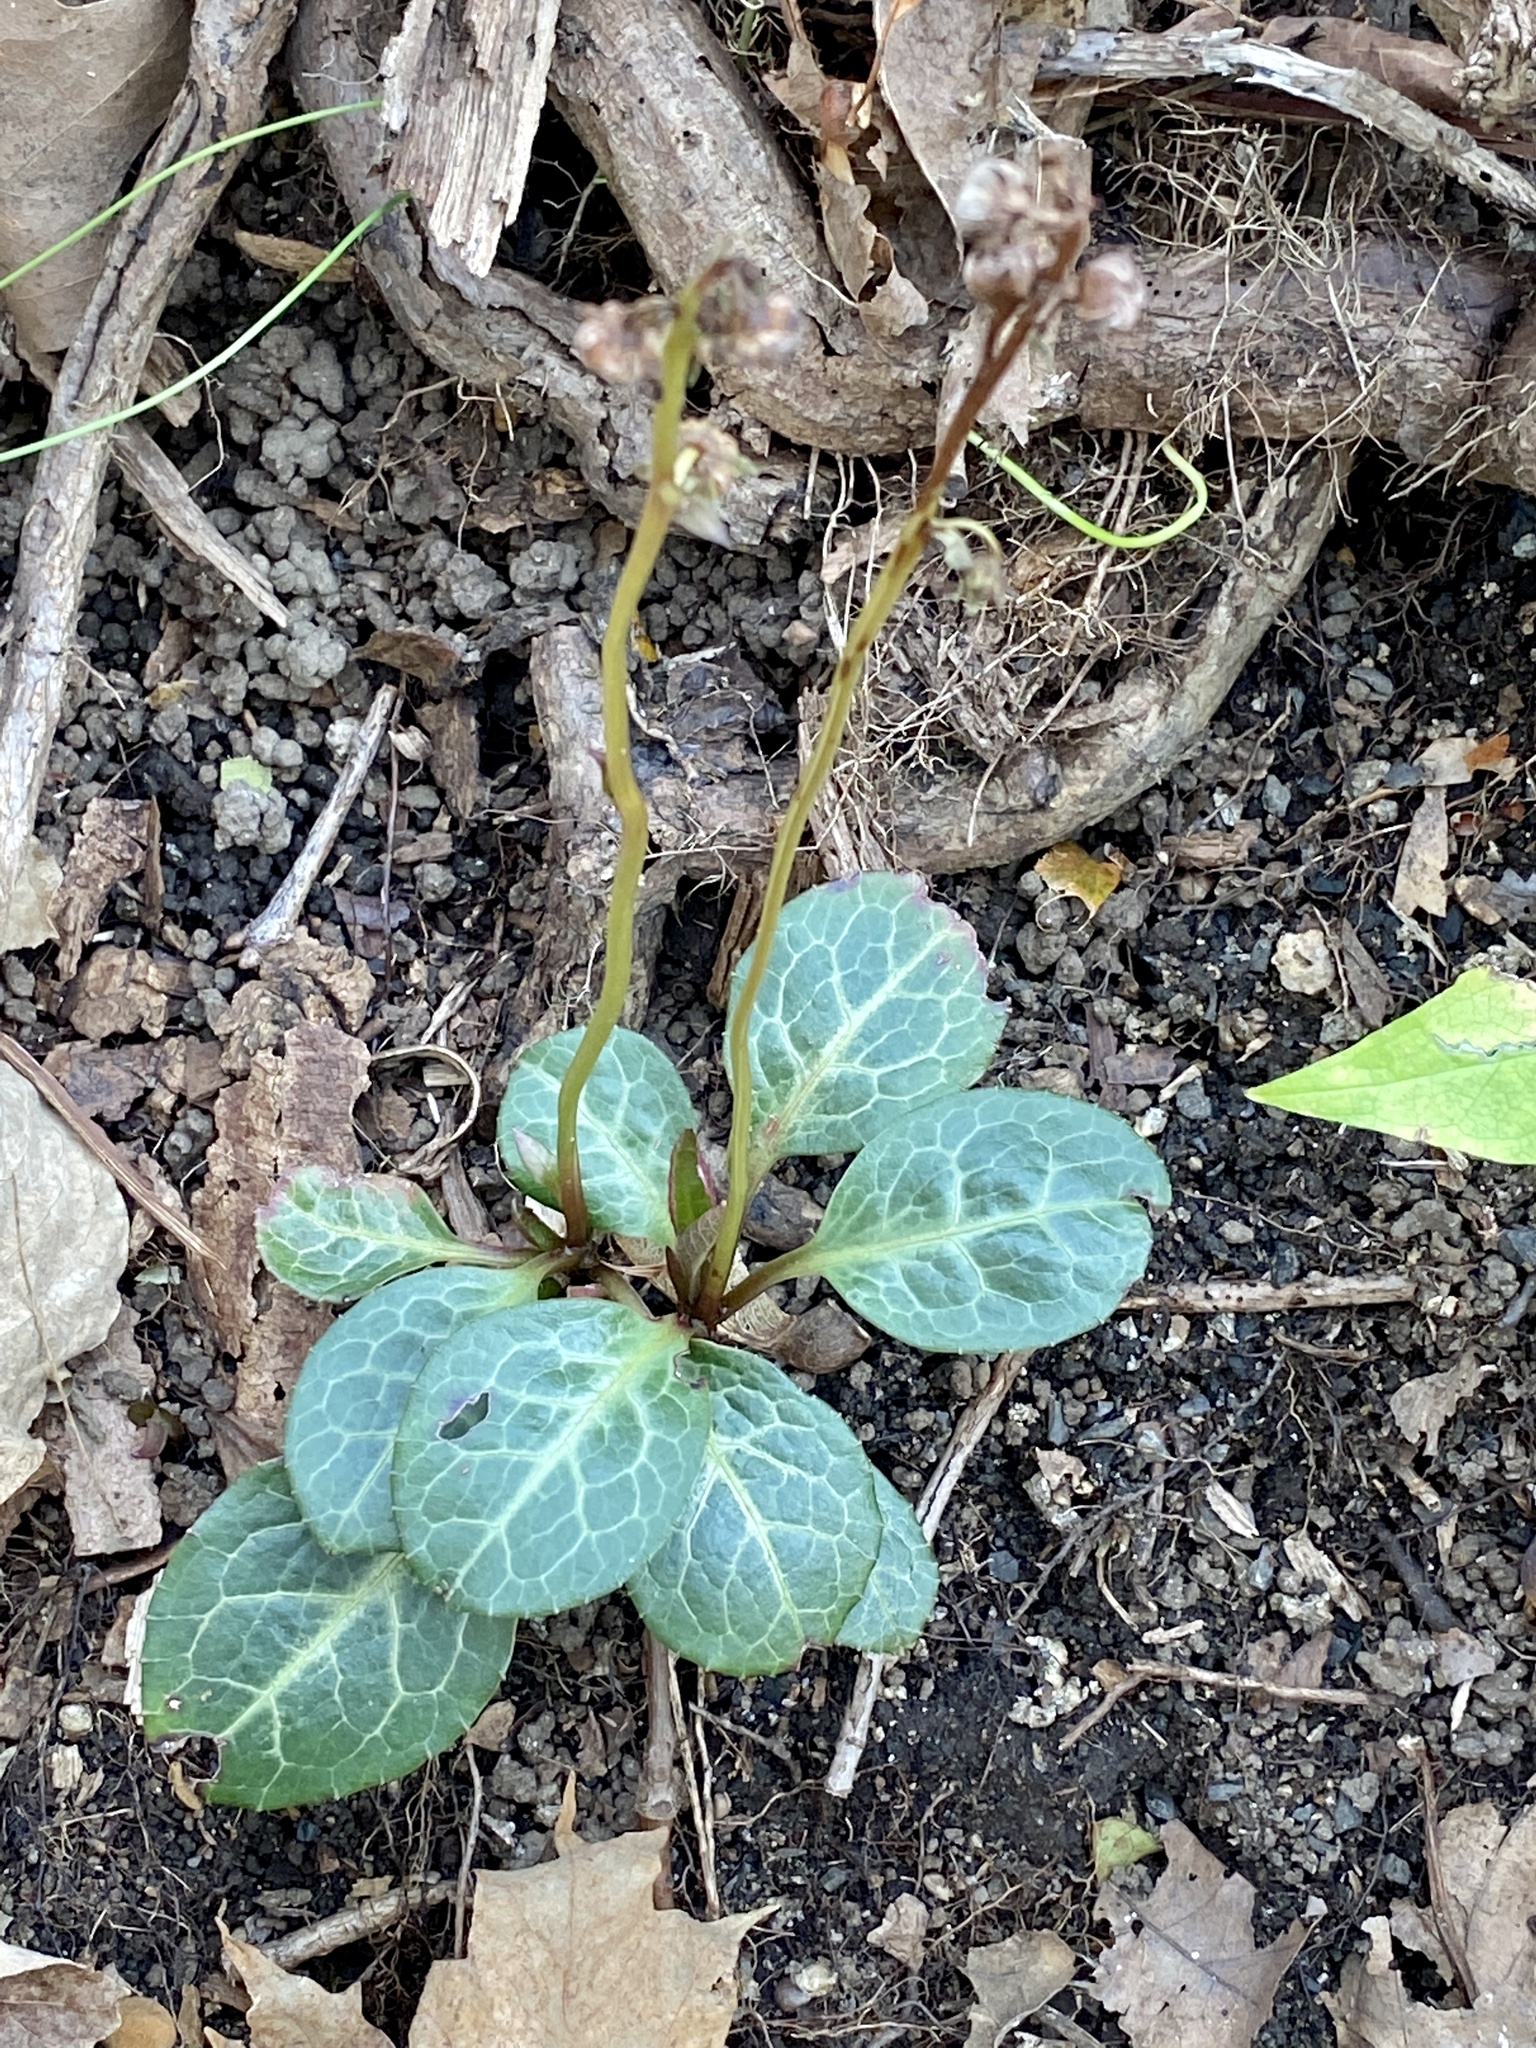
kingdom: Plantae
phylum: Tracheophyta
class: Magnoliopsida
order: Ericales
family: Ericaceae
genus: Pyrola
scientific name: Pyrola americana
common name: American wintergreen
